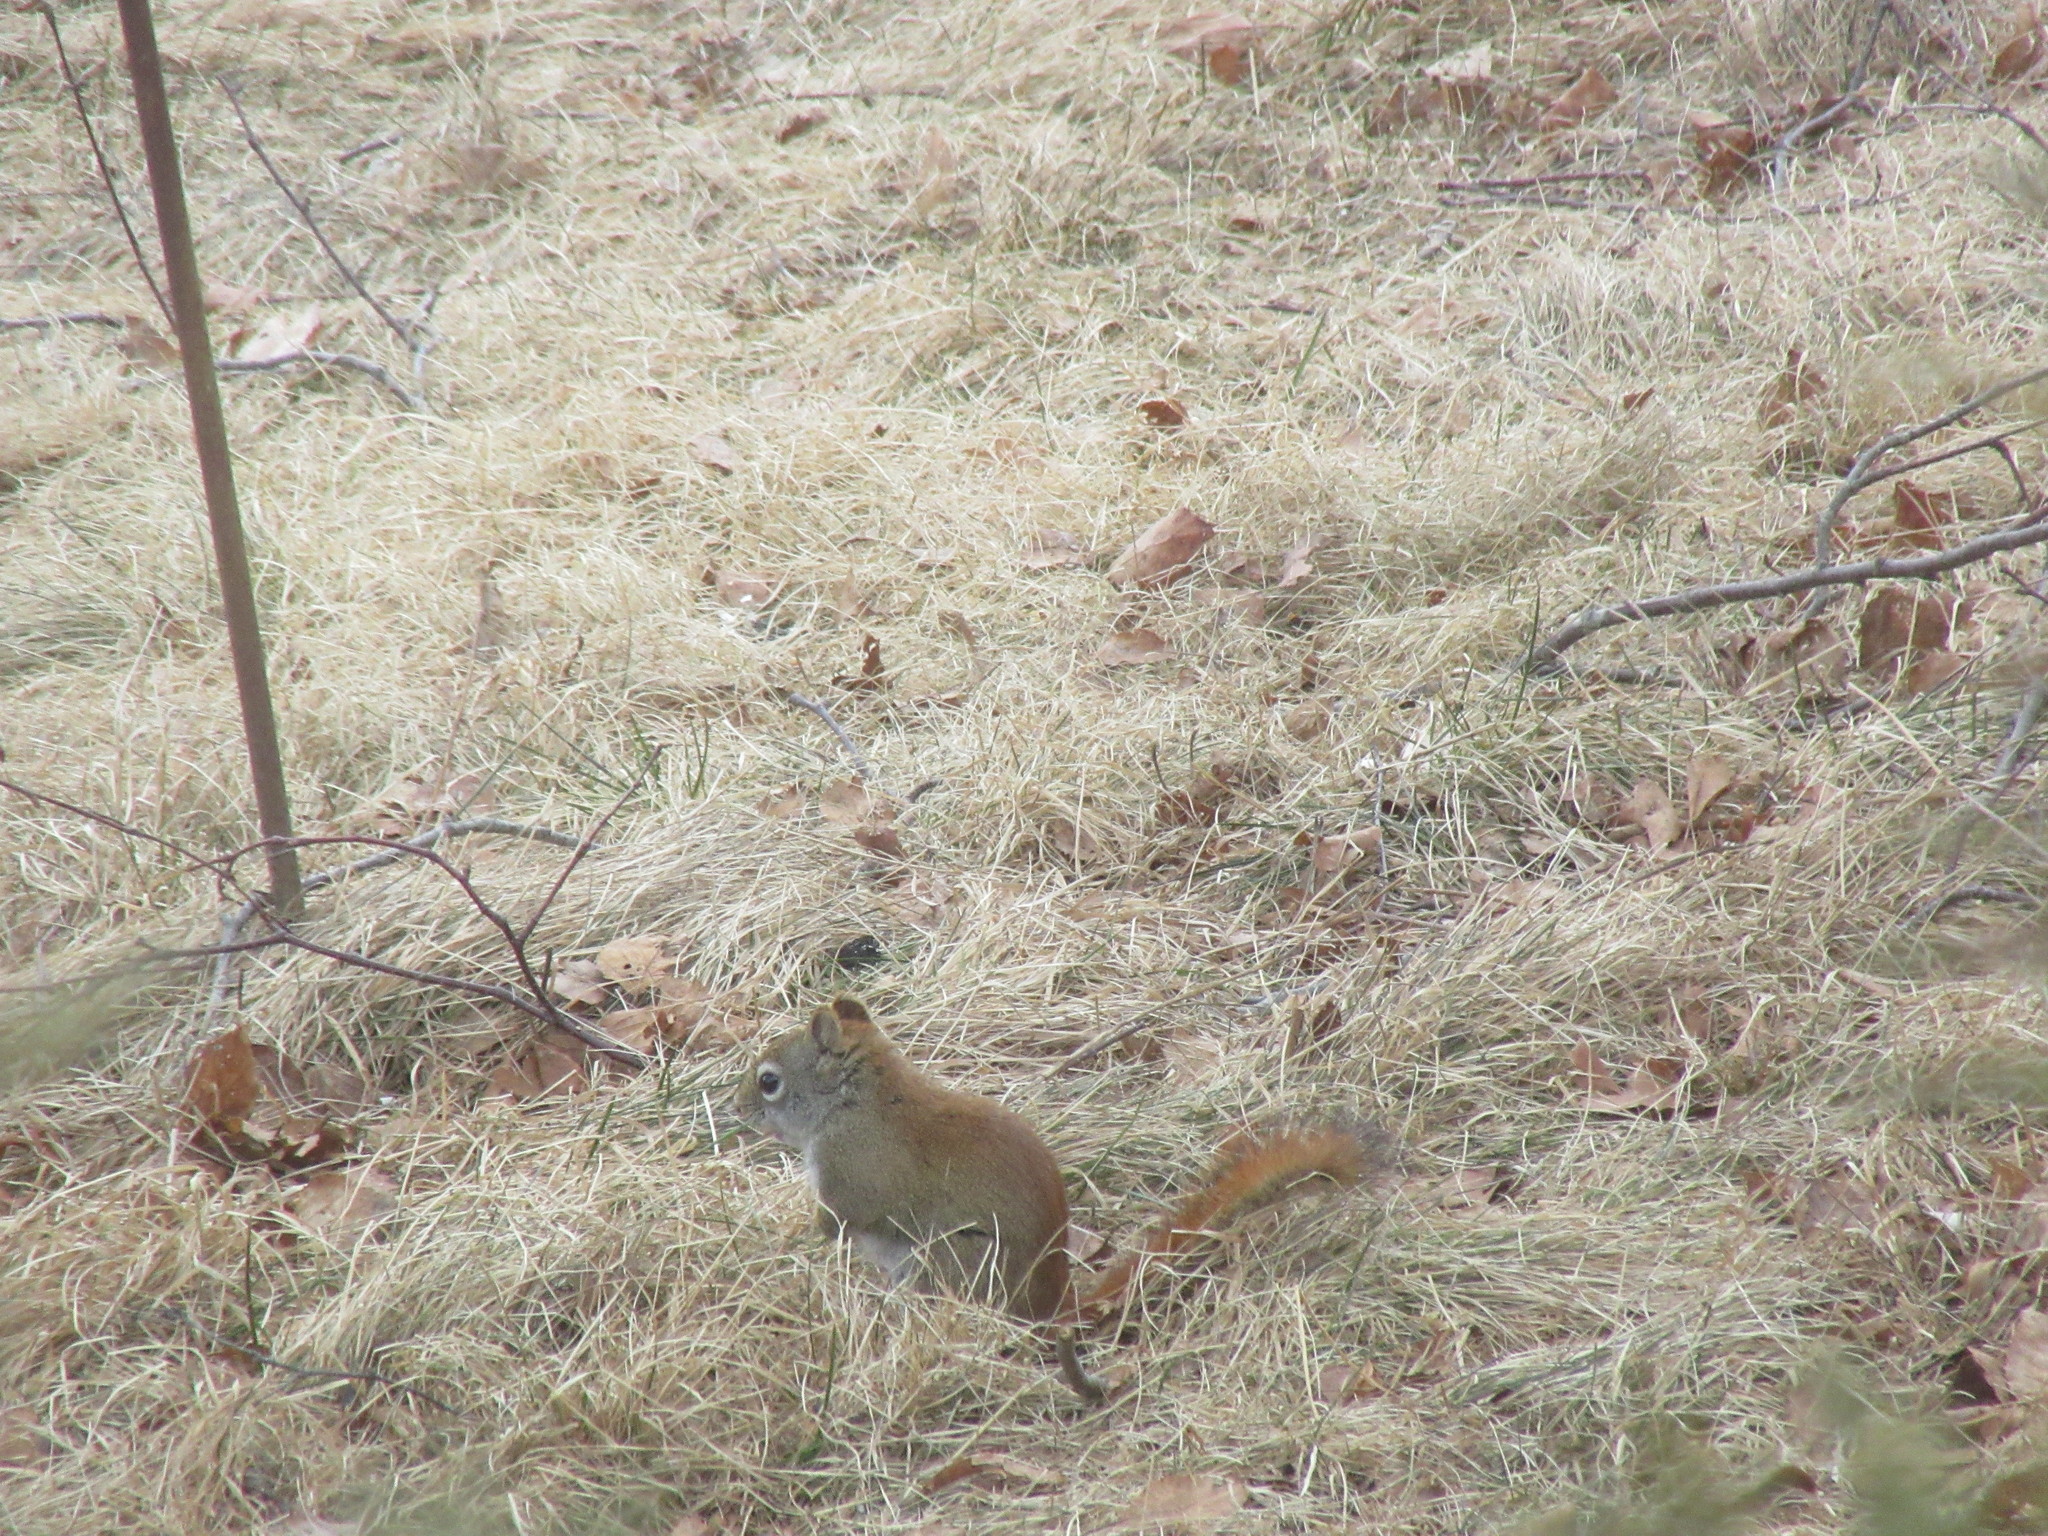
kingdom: Animalia
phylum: Chordata
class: Mammalia
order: Rodentia
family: Sciuridae
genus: Tamiasciurus
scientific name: Tamiasciurus hudsonicus
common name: Red squirrel
